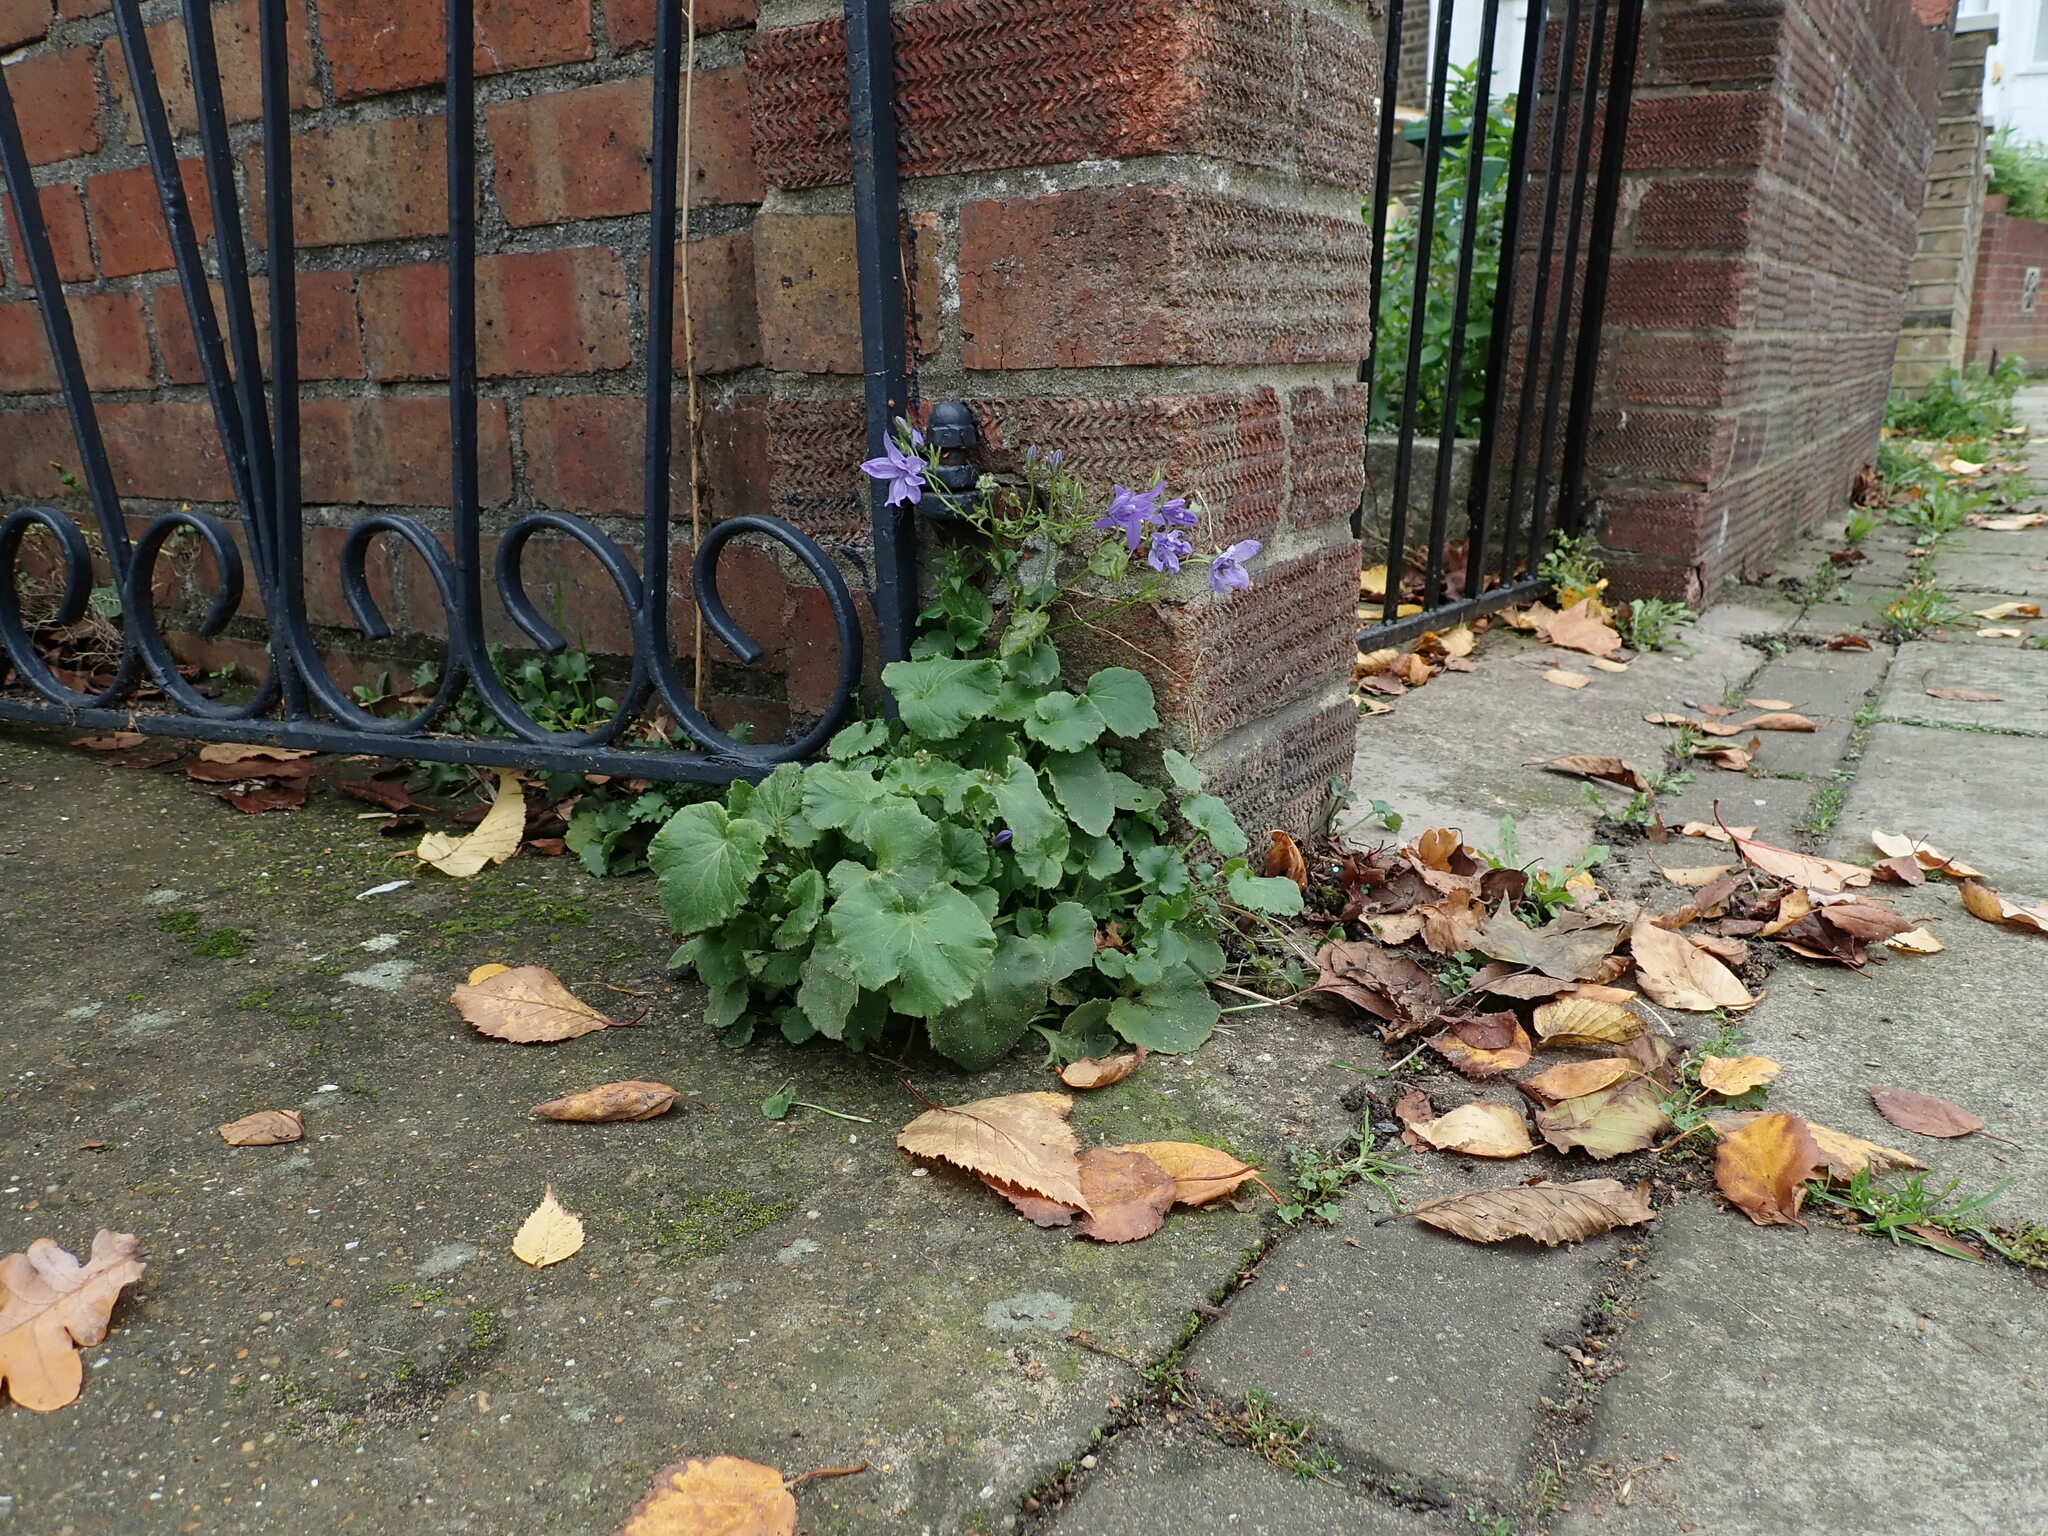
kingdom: Plantae
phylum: Tracheophyta
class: Magnoliopsida
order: Asterales
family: Campanulaceae
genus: Campanula
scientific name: Campanula poscharskyana
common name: Trailing bellflower
